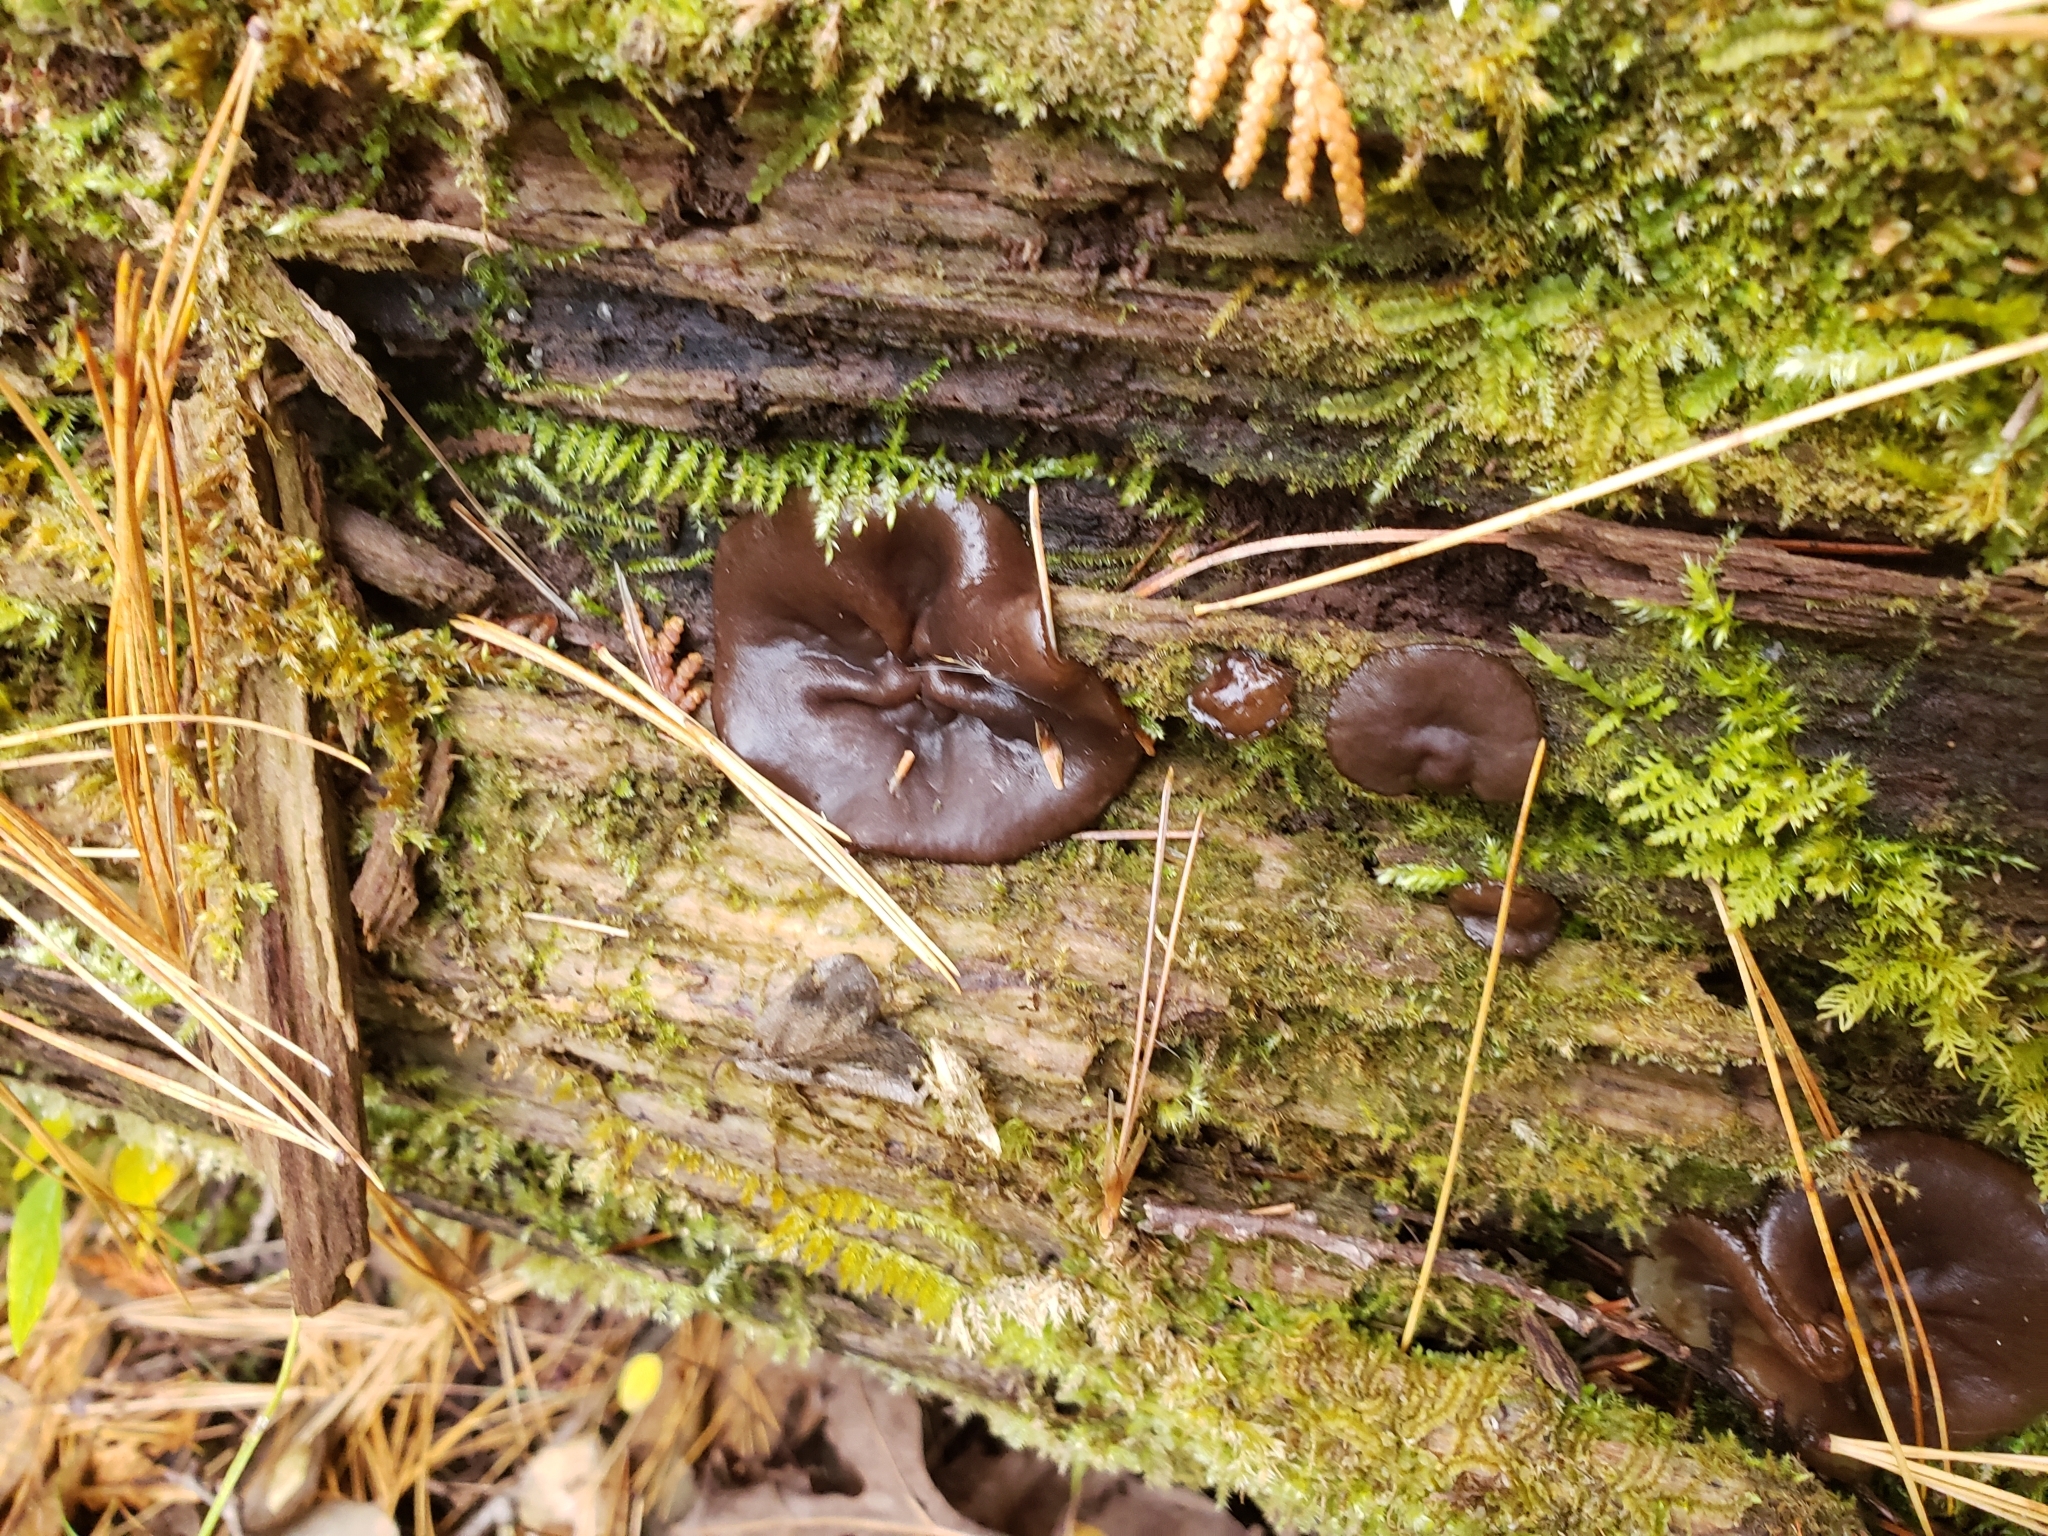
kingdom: Fungi
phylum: Ascomycota
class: Pezizomycetes
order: Pezizales
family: Pezizaceae
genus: Pachyella
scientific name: Pachyella clypeata
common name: Copper penny fungus
